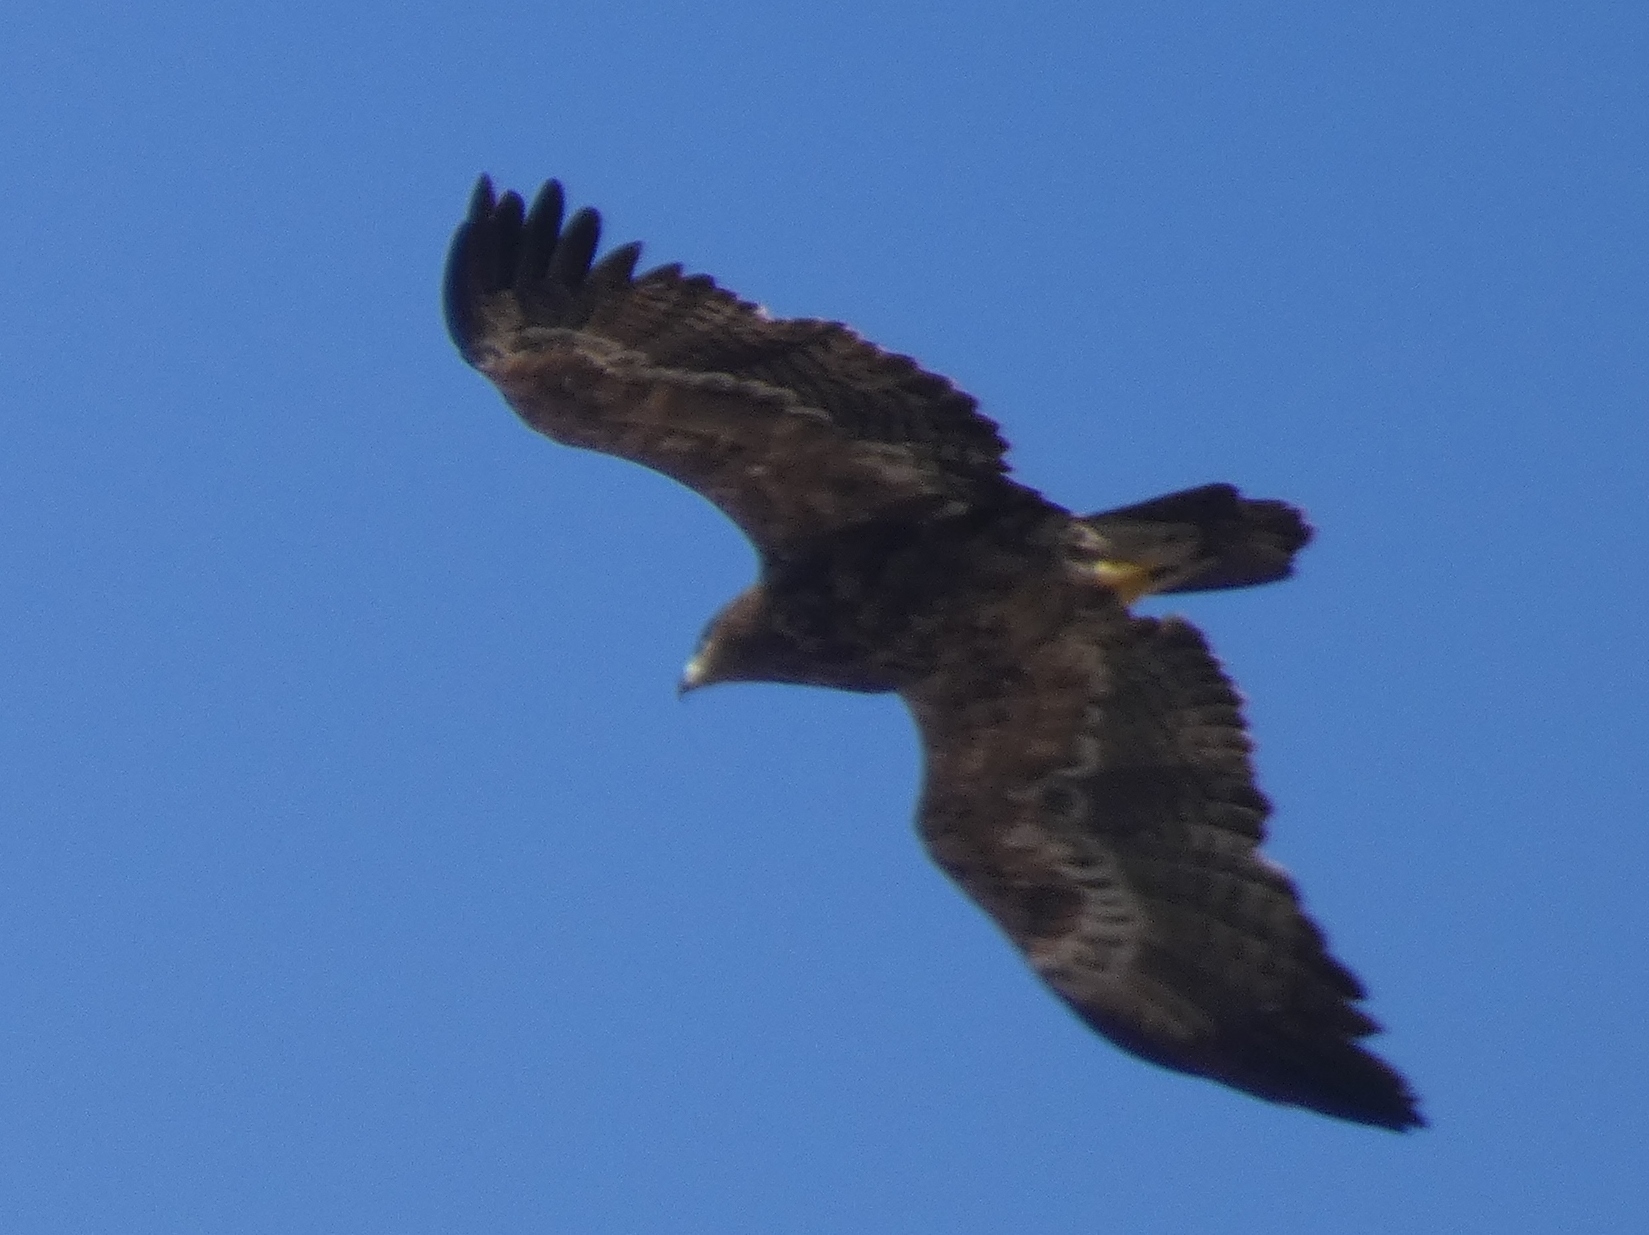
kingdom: Animalia
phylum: Chordata
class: Aves
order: Accipitriformes
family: Accipitridae
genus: Aquila
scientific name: Aquila nipalensis
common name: Steppe eagle
